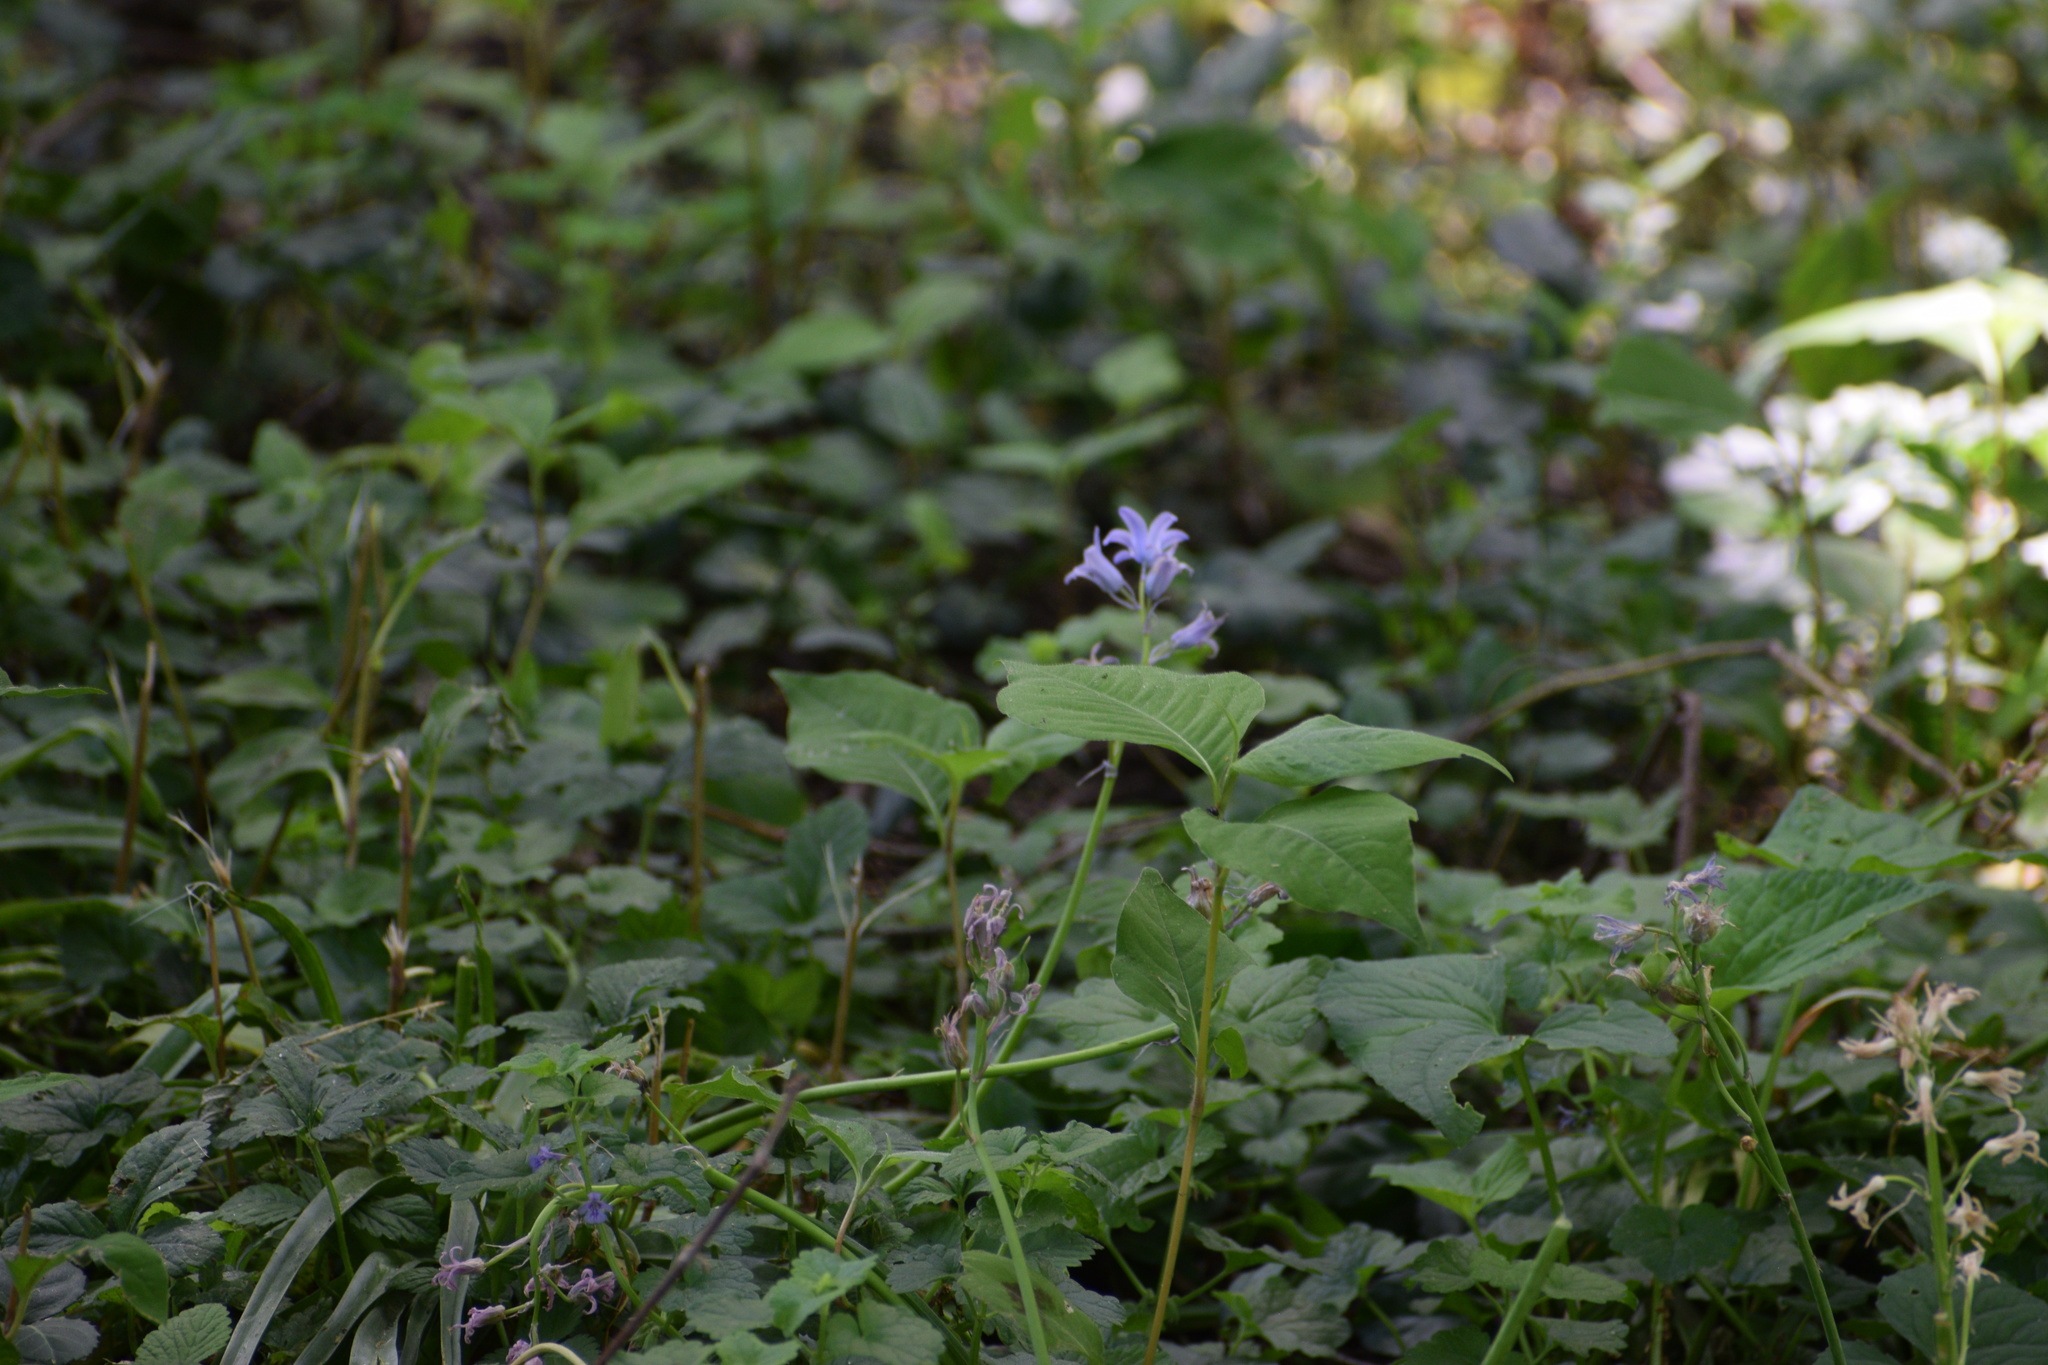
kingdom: Plantae
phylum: Tracheophyta
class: Liliopsida
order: Asparagales
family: Asparagaceae
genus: Hyacinthoides
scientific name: Hyacinthoides hispanica
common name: Spanish bluebell
